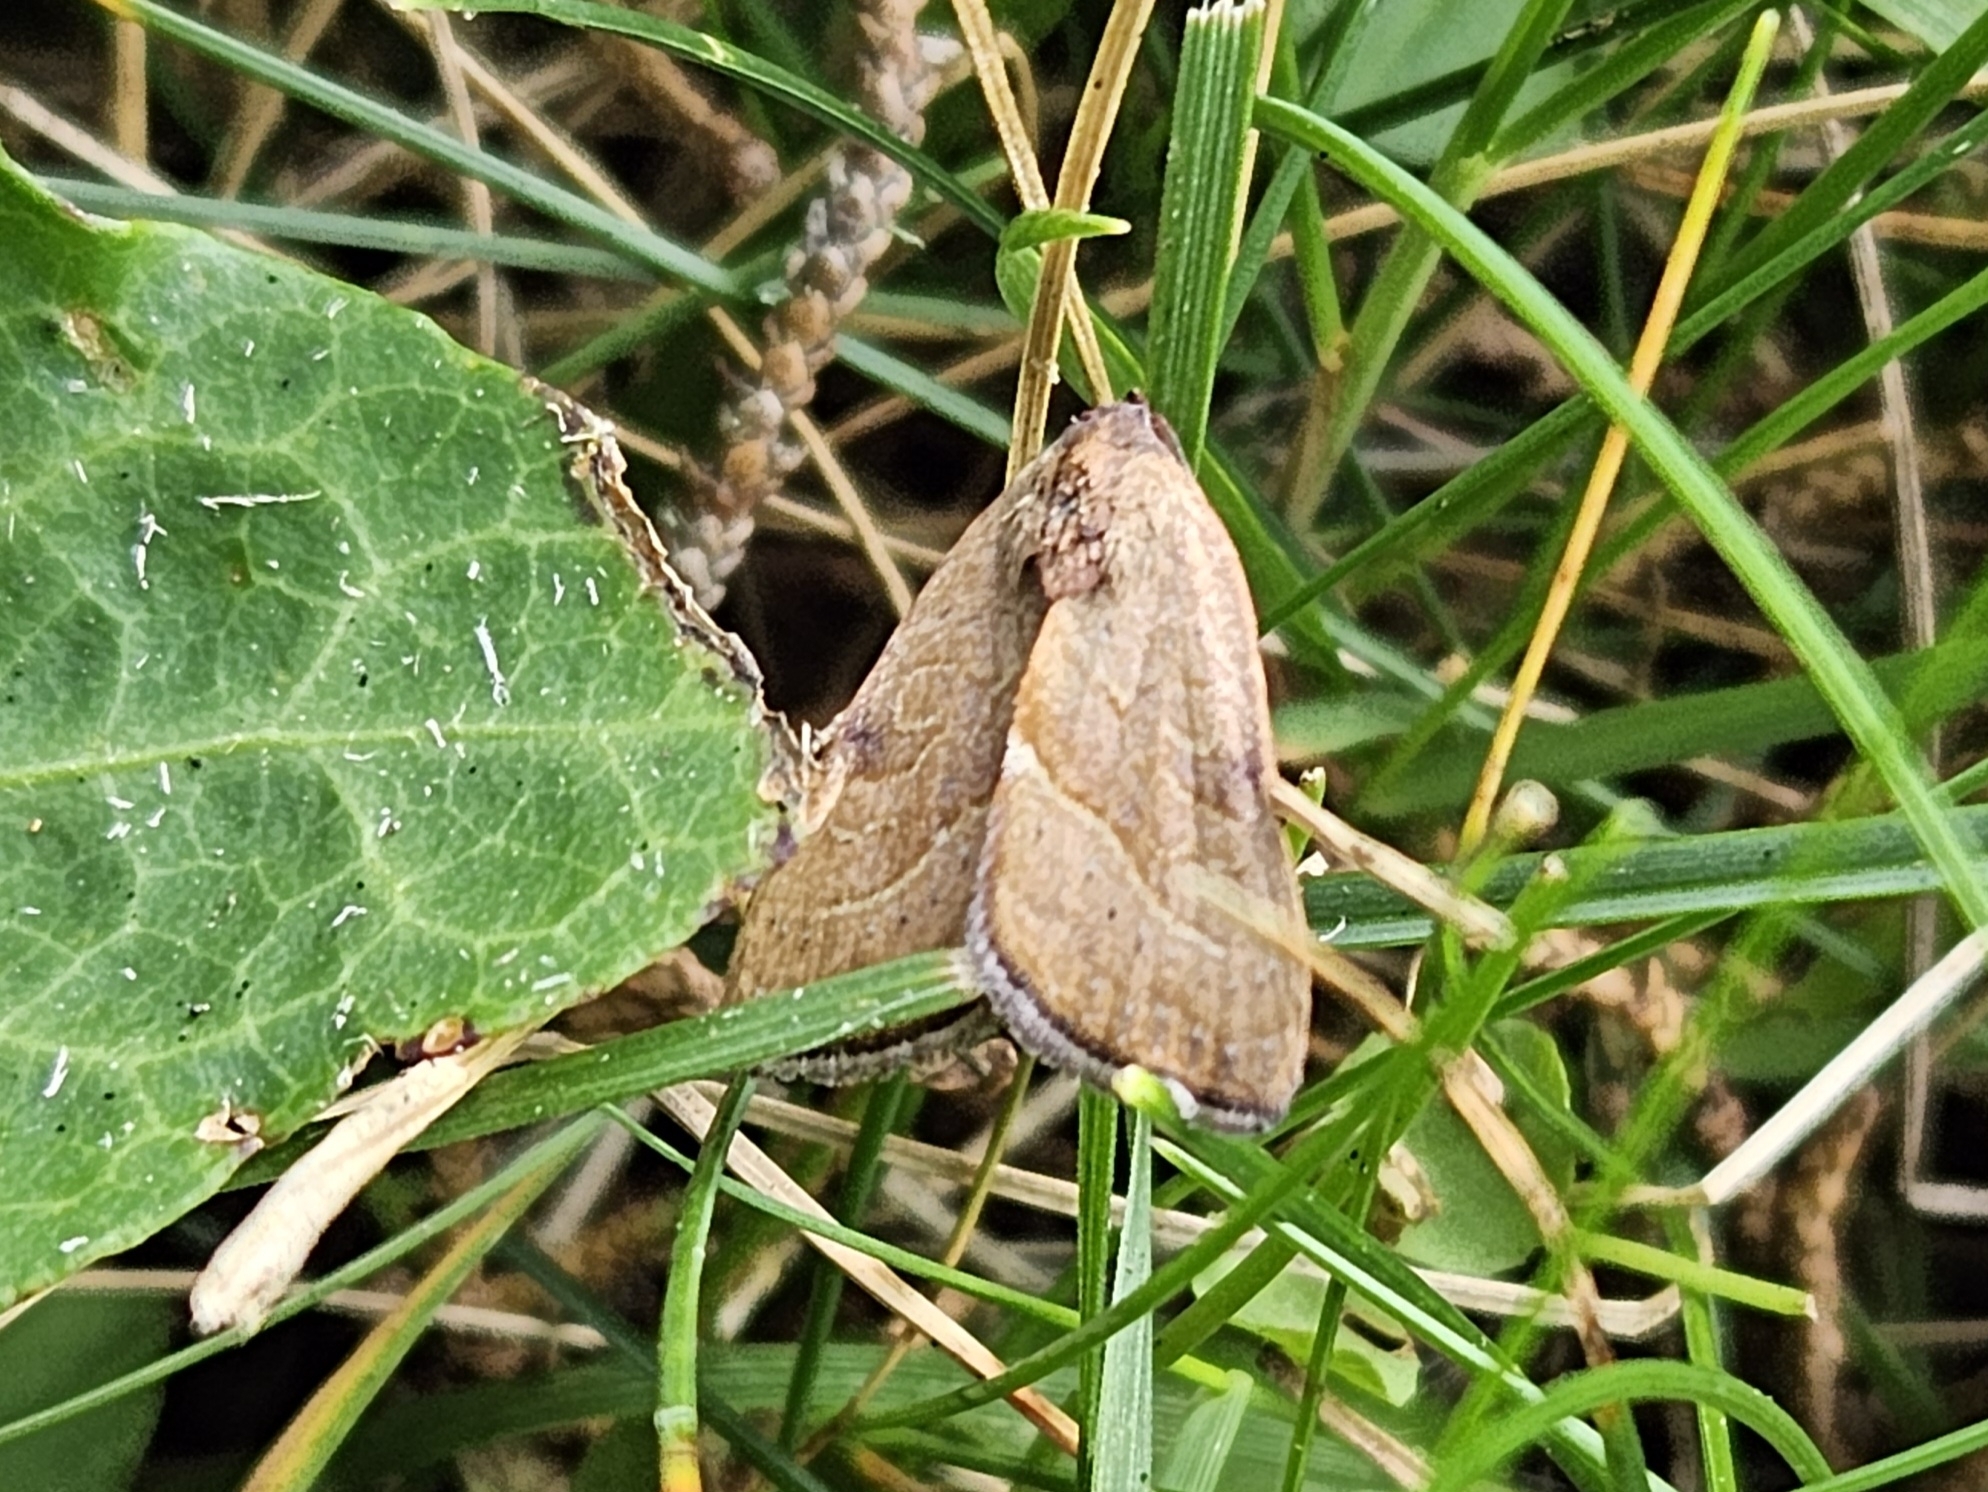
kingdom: Animalia
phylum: Arthropoda
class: Insecta
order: Lepidoptera
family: Noctuidae
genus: Galgula
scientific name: Galgula partita
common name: Wedgeling
